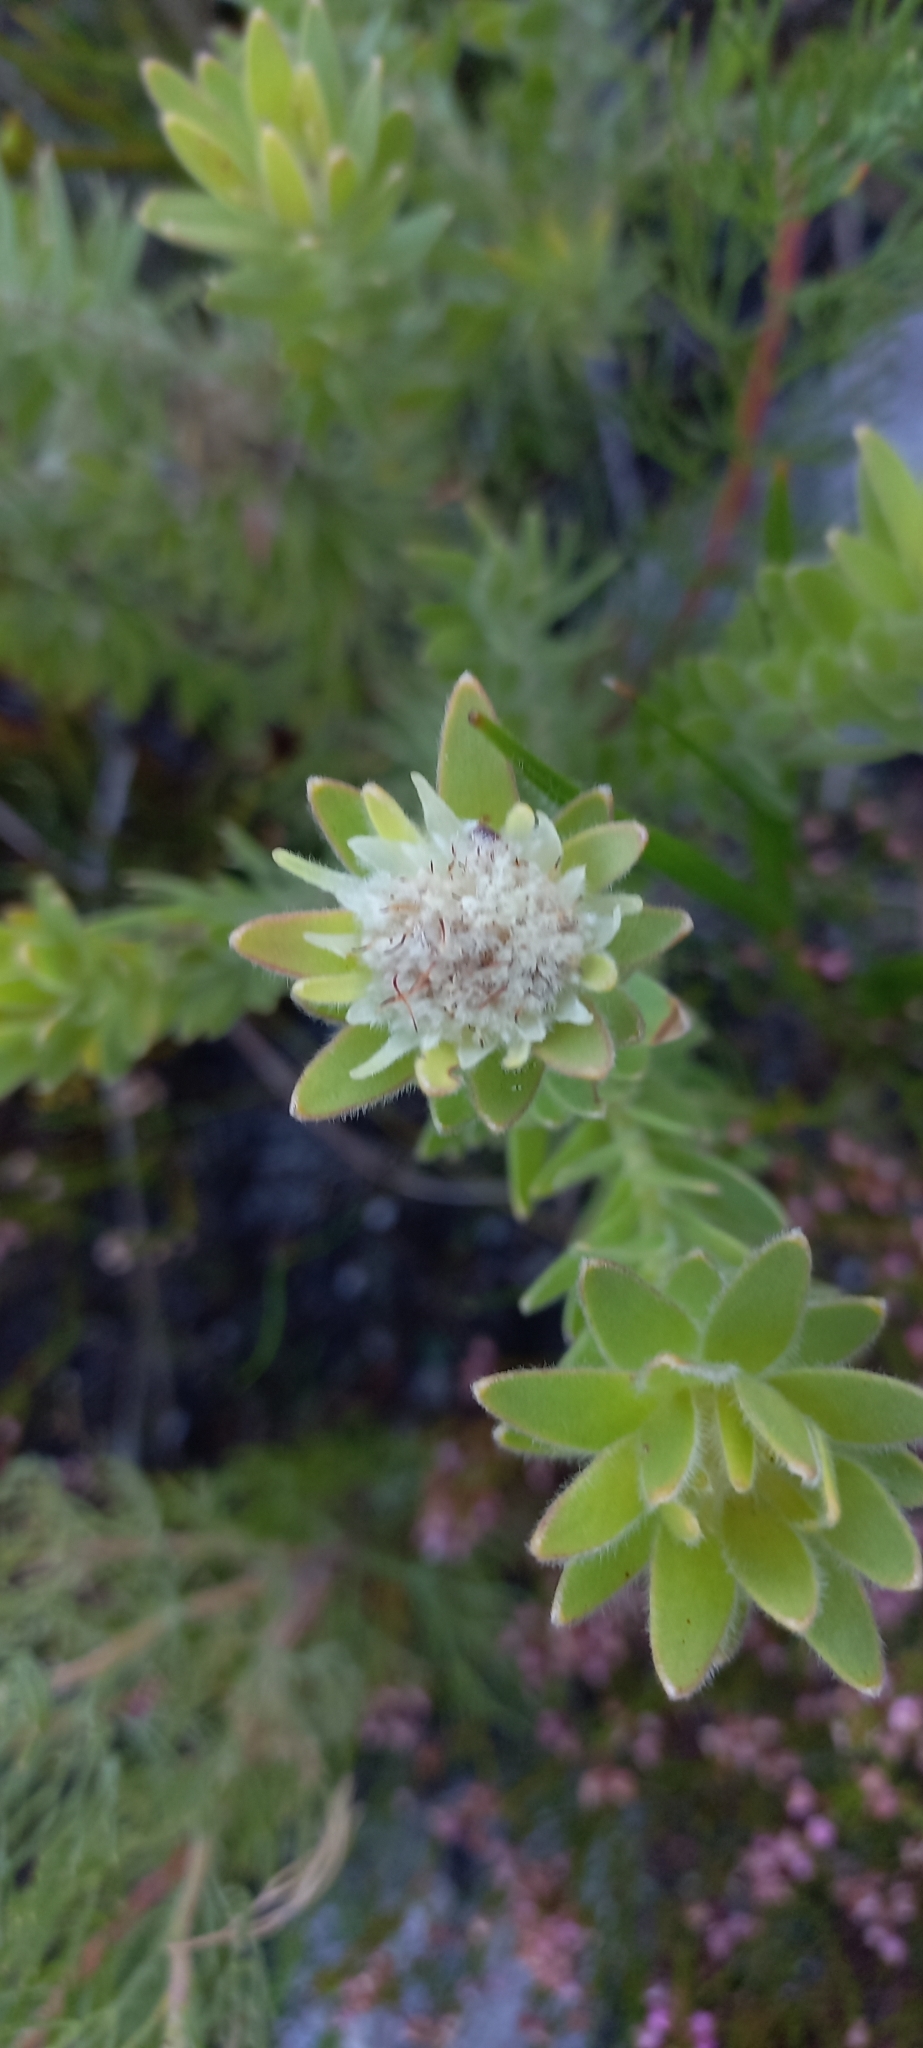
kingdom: Plantae
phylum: Tracheophyta
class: Magnoliopsida
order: Proteales
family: Proteaceae
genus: Diastella
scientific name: Diastella thymelaeoides
